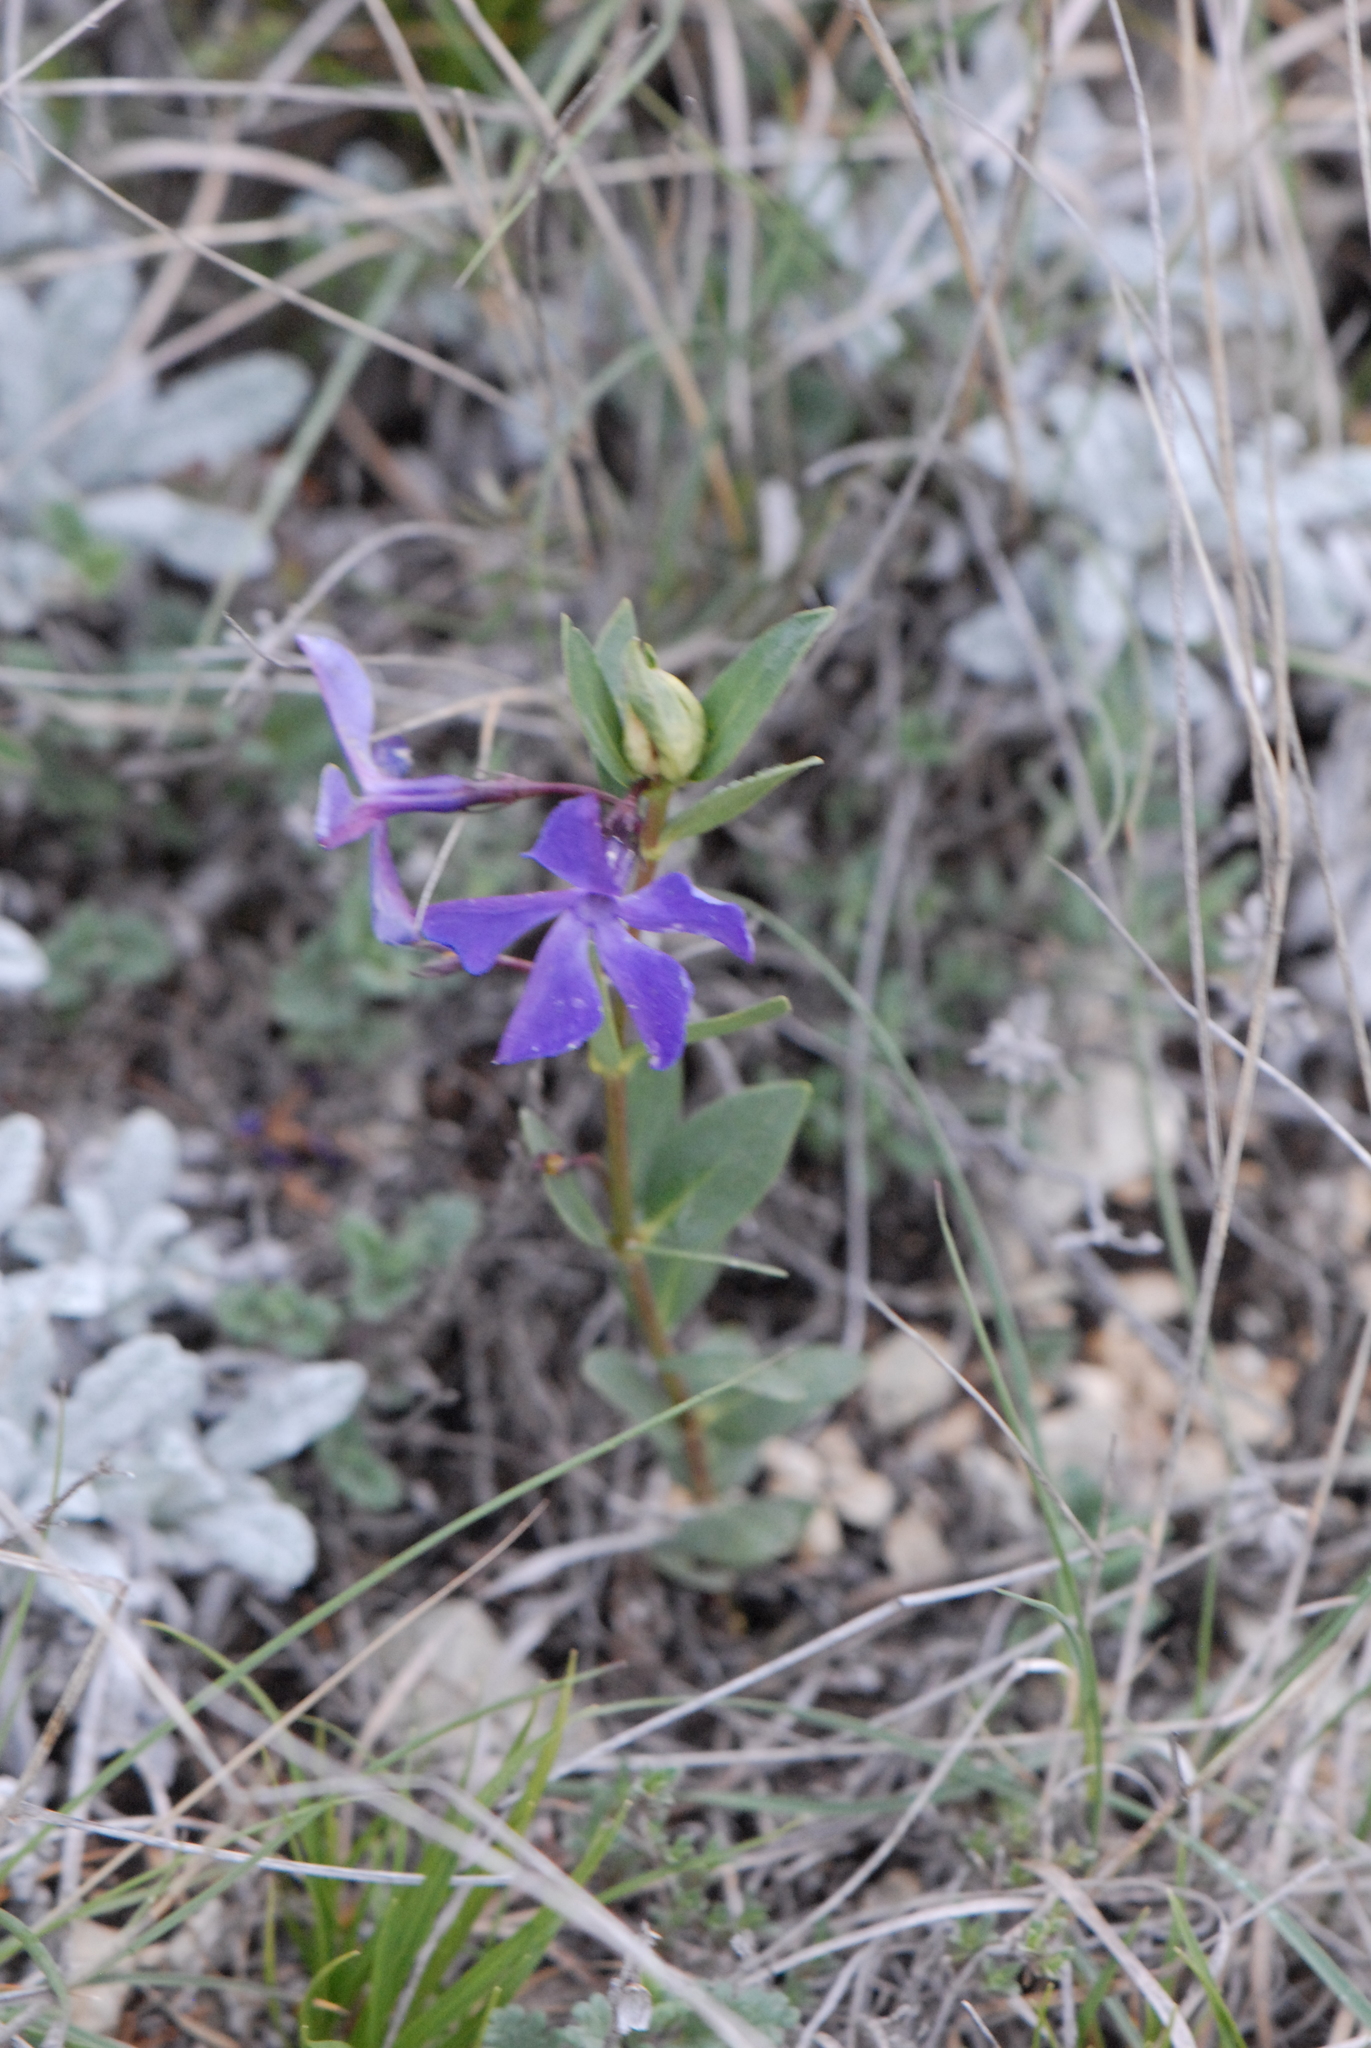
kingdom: Plantae
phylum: Tracheophyta
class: Magnoliopsida
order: Gentianales
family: Apocynaceae
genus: Vinca
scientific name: Vinca herbacea
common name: Herbaceous periwinkle
